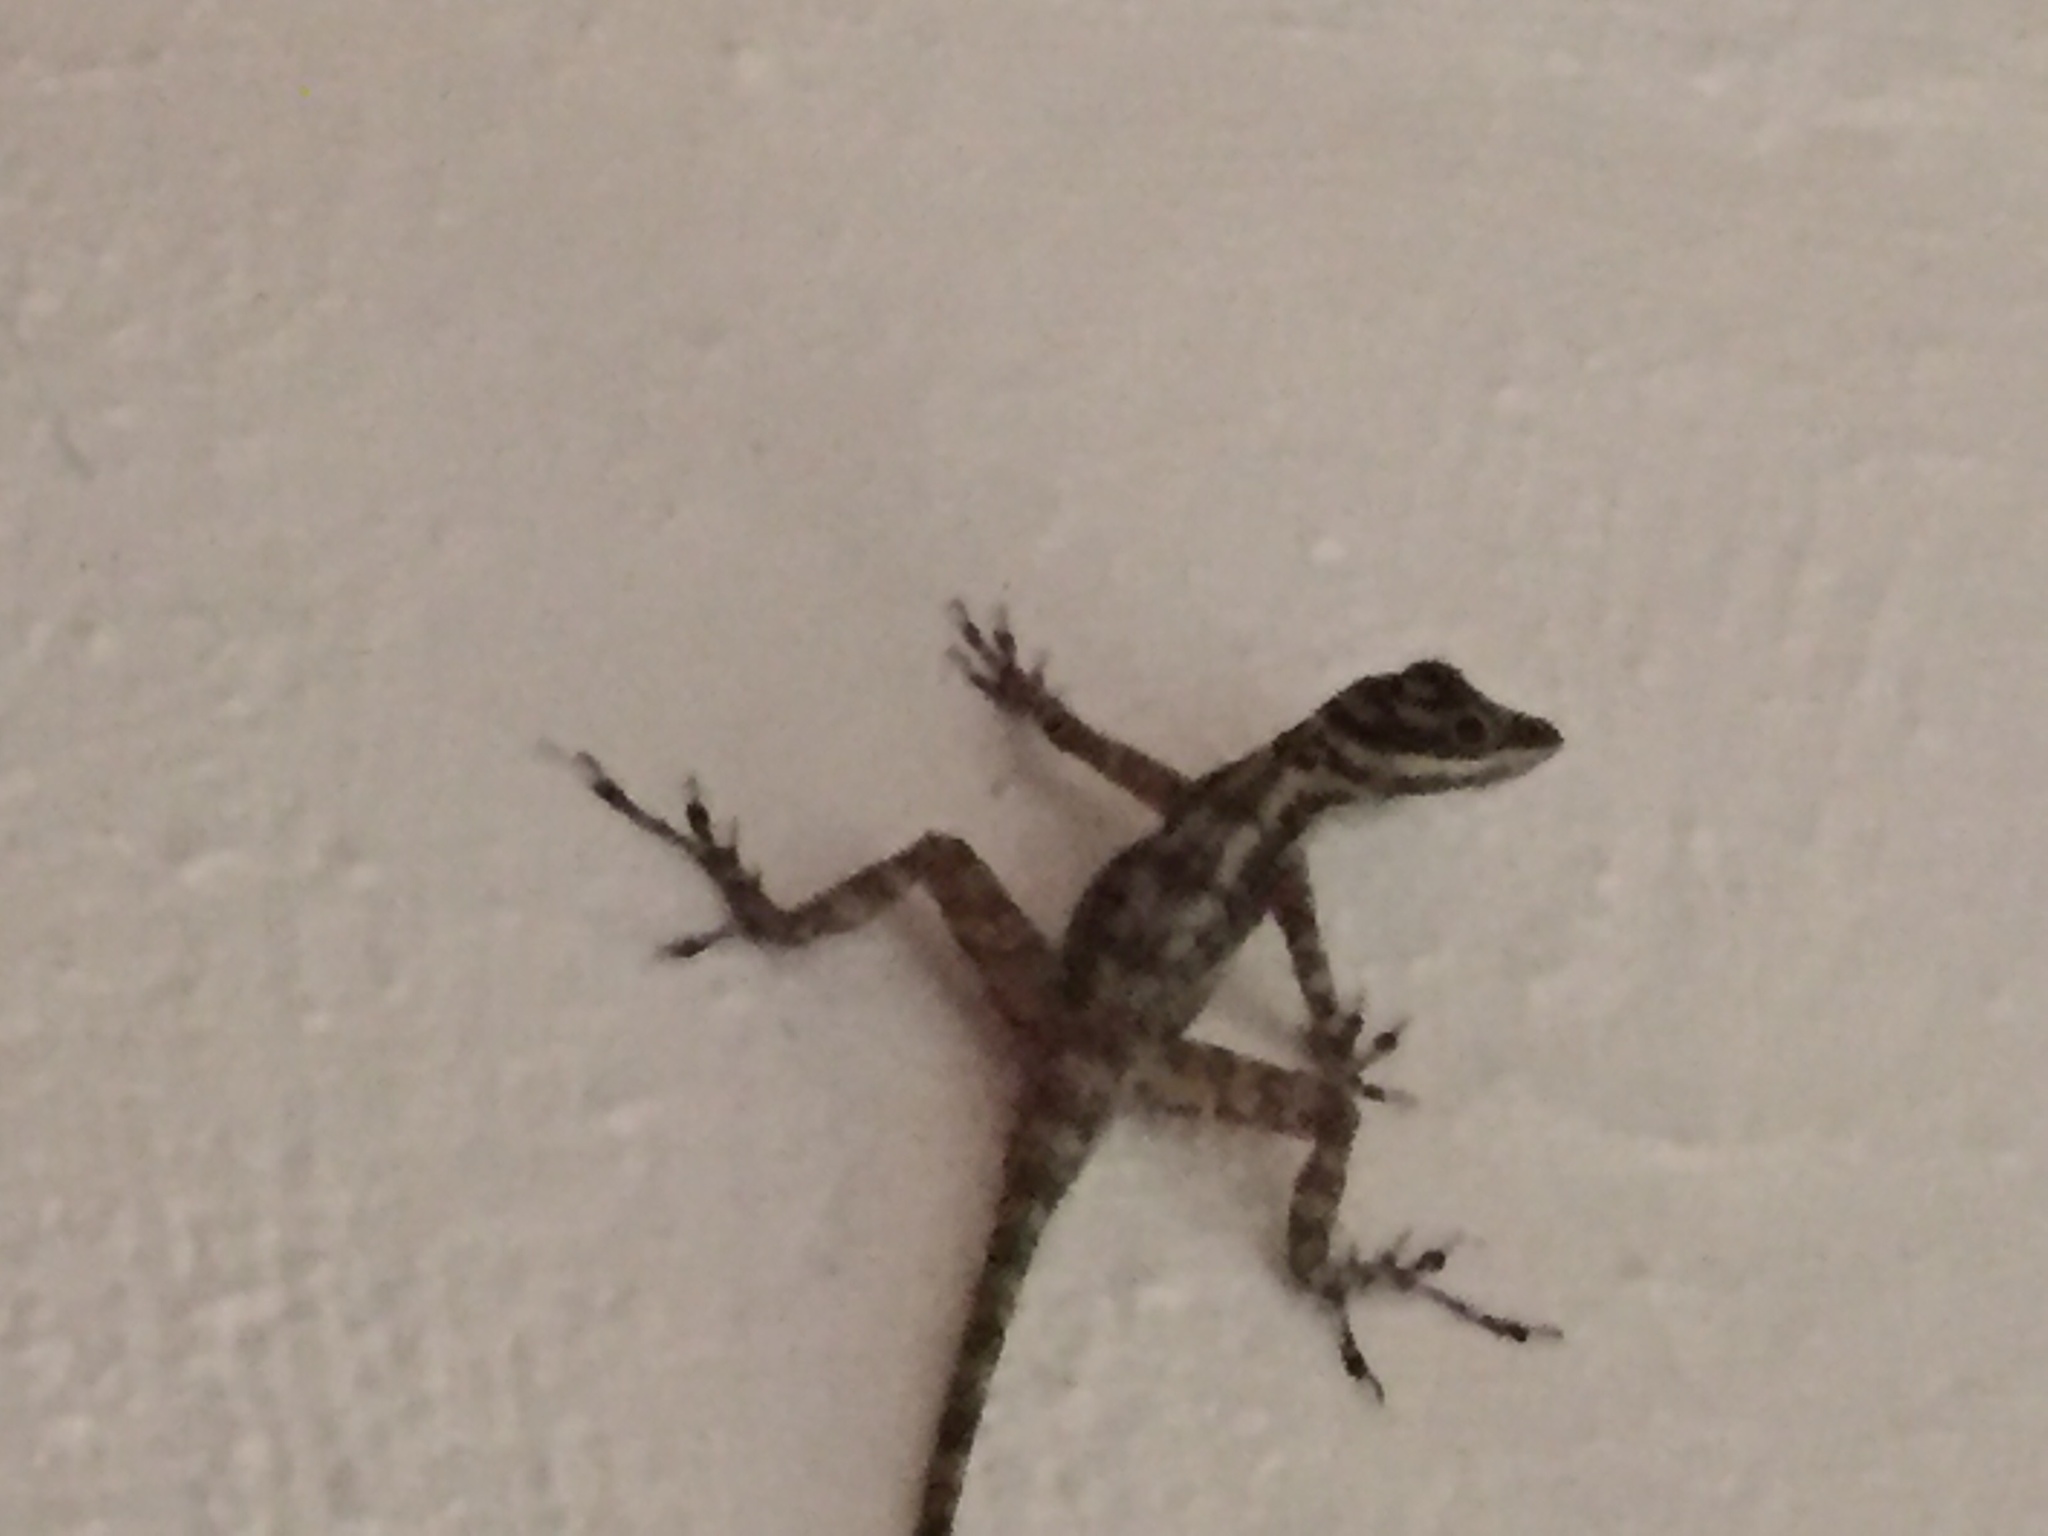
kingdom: Animalia
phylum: Chordata
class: Squamata
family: Dactyloidae
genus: Anolis
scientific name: Anolis lucius
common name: Cave anole
